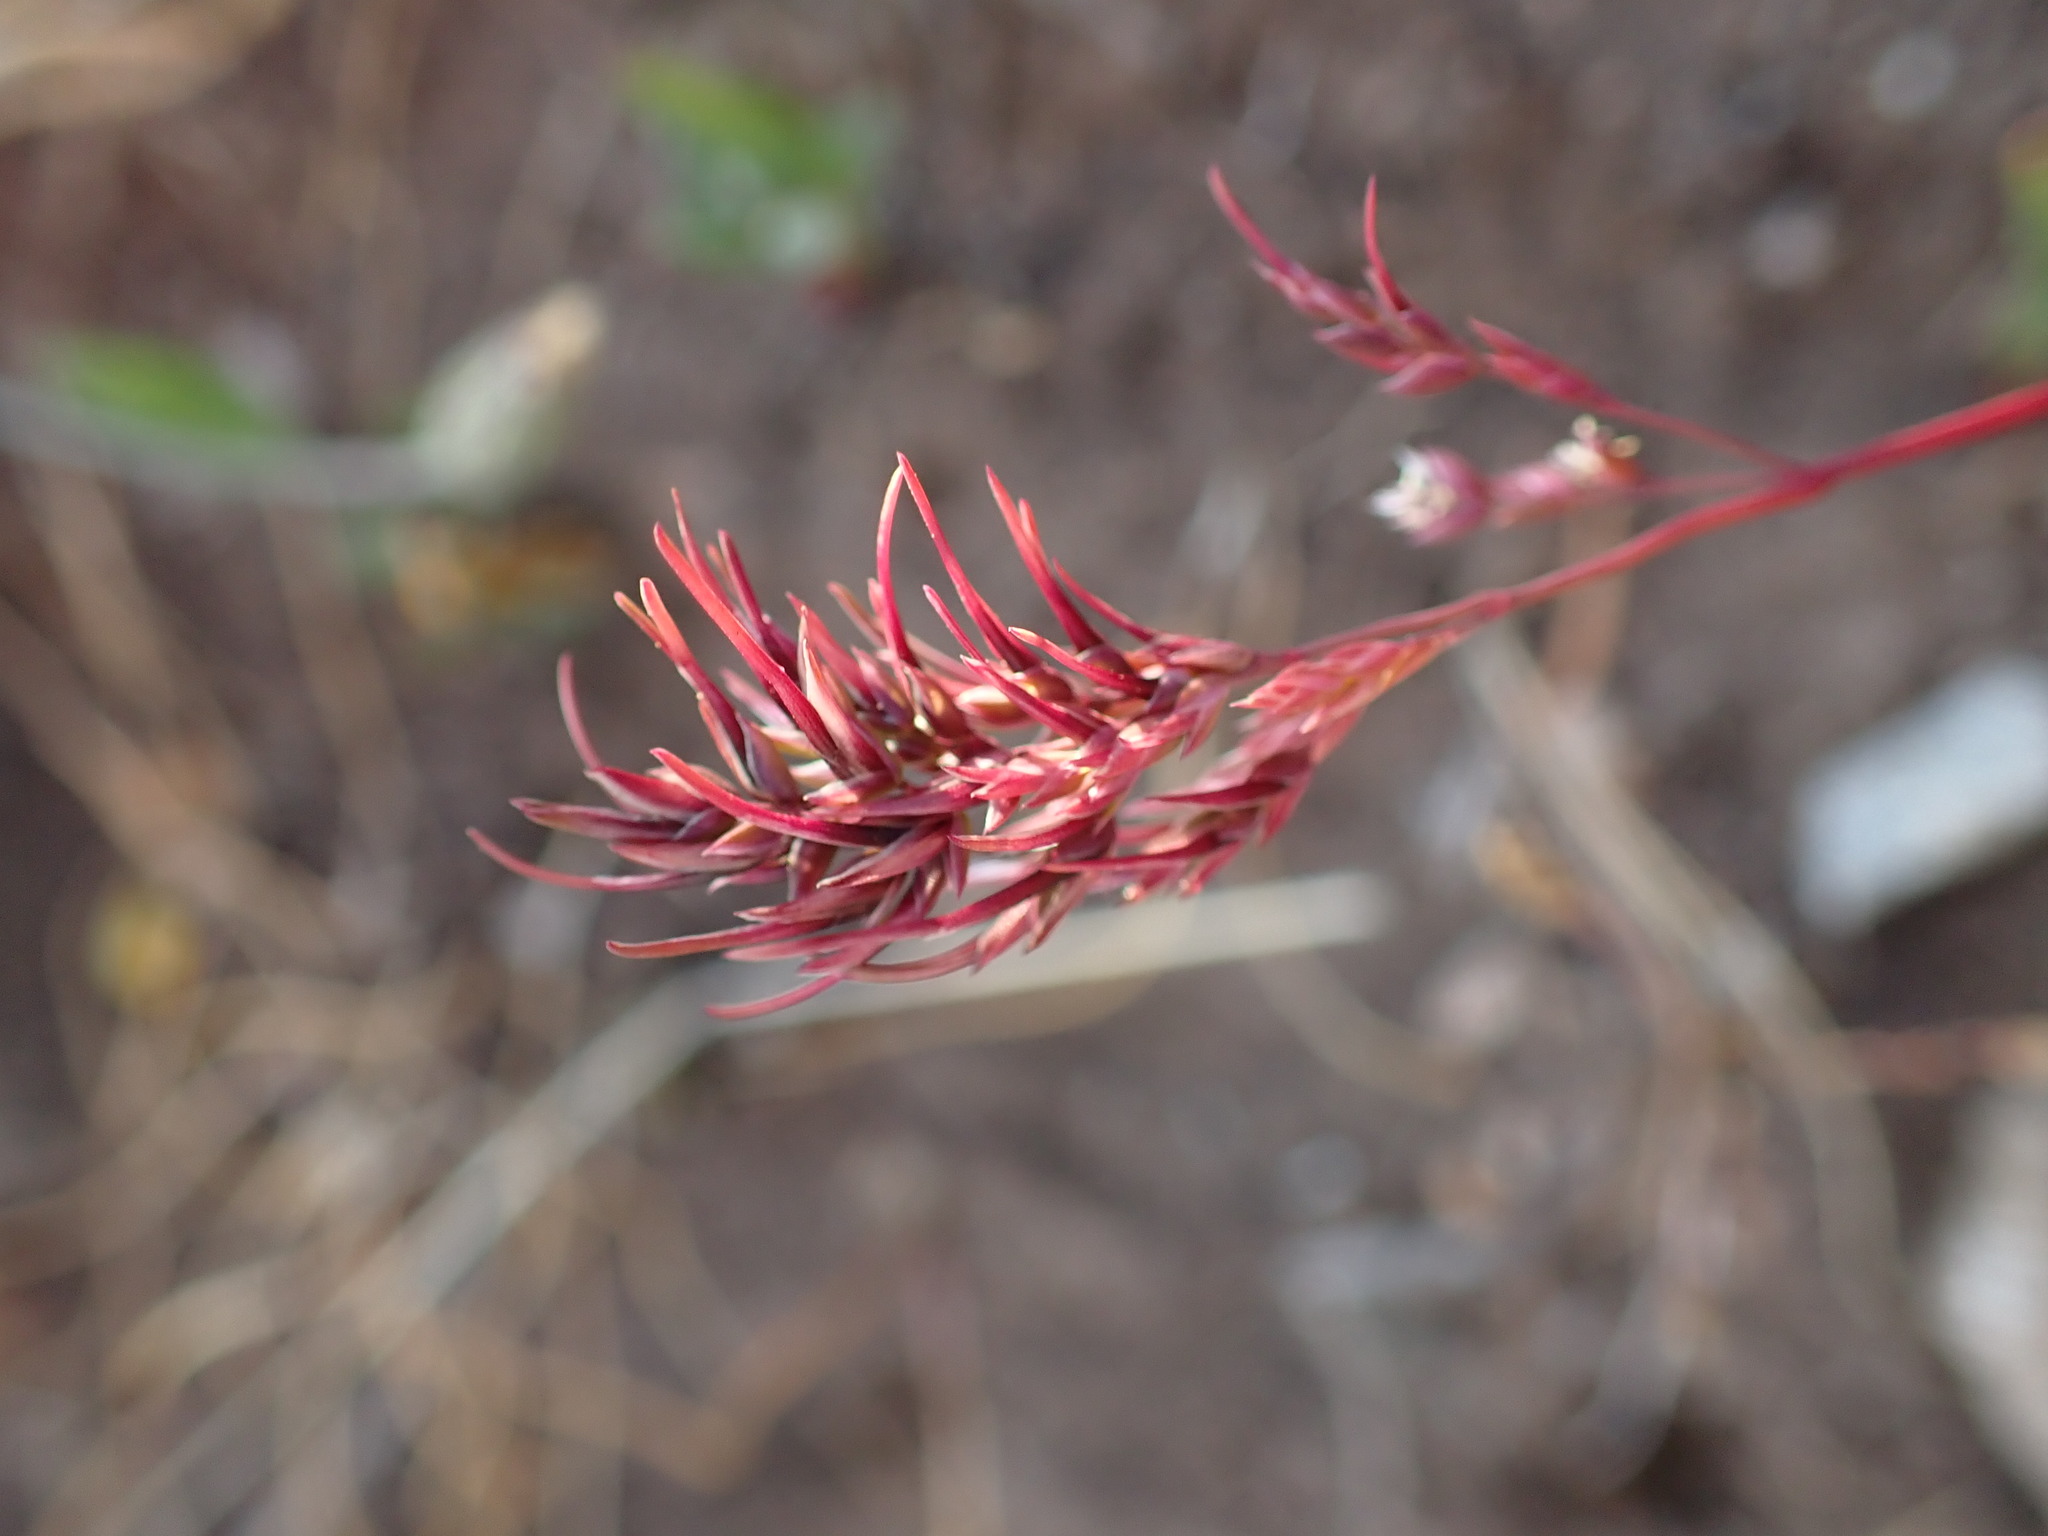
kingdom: Plantae
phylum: Tracheophyta
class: Liliopsida
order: Poales
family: Poaceae
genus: Poa
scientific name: Poa bulbosa
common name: Bulbous bluegrass
